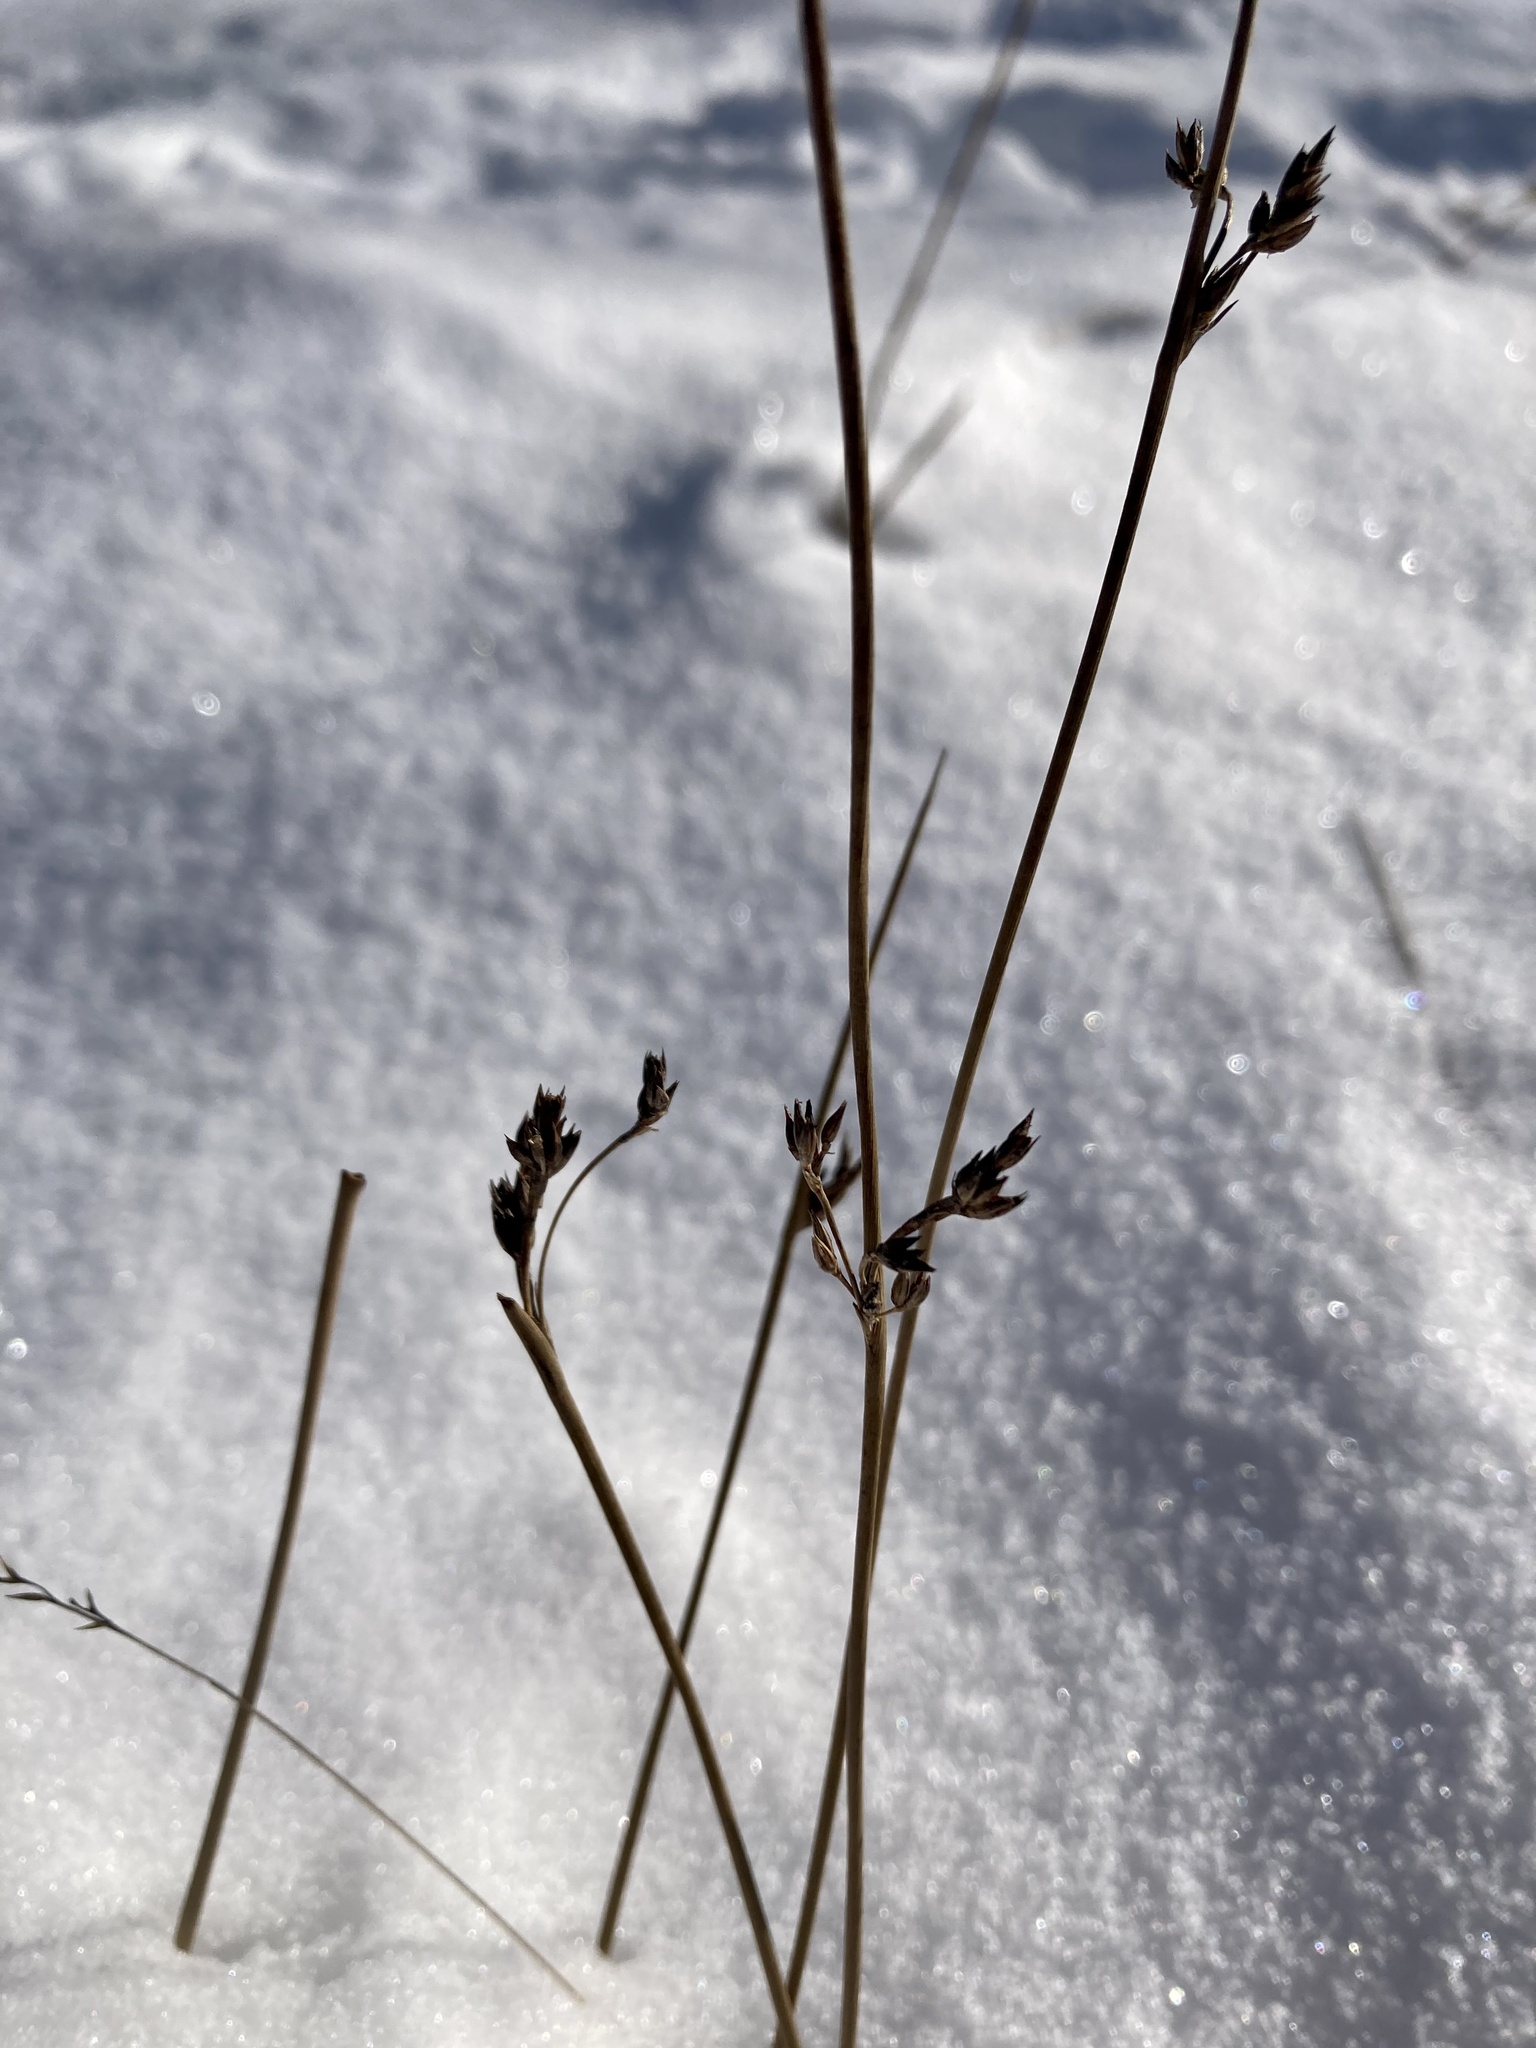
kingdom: Plantae
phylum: Tracheophyta
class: Liliopsida
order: Poales
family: Juncaceae
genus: Juncus
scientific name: Juncus balticus
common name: Baltic rush
